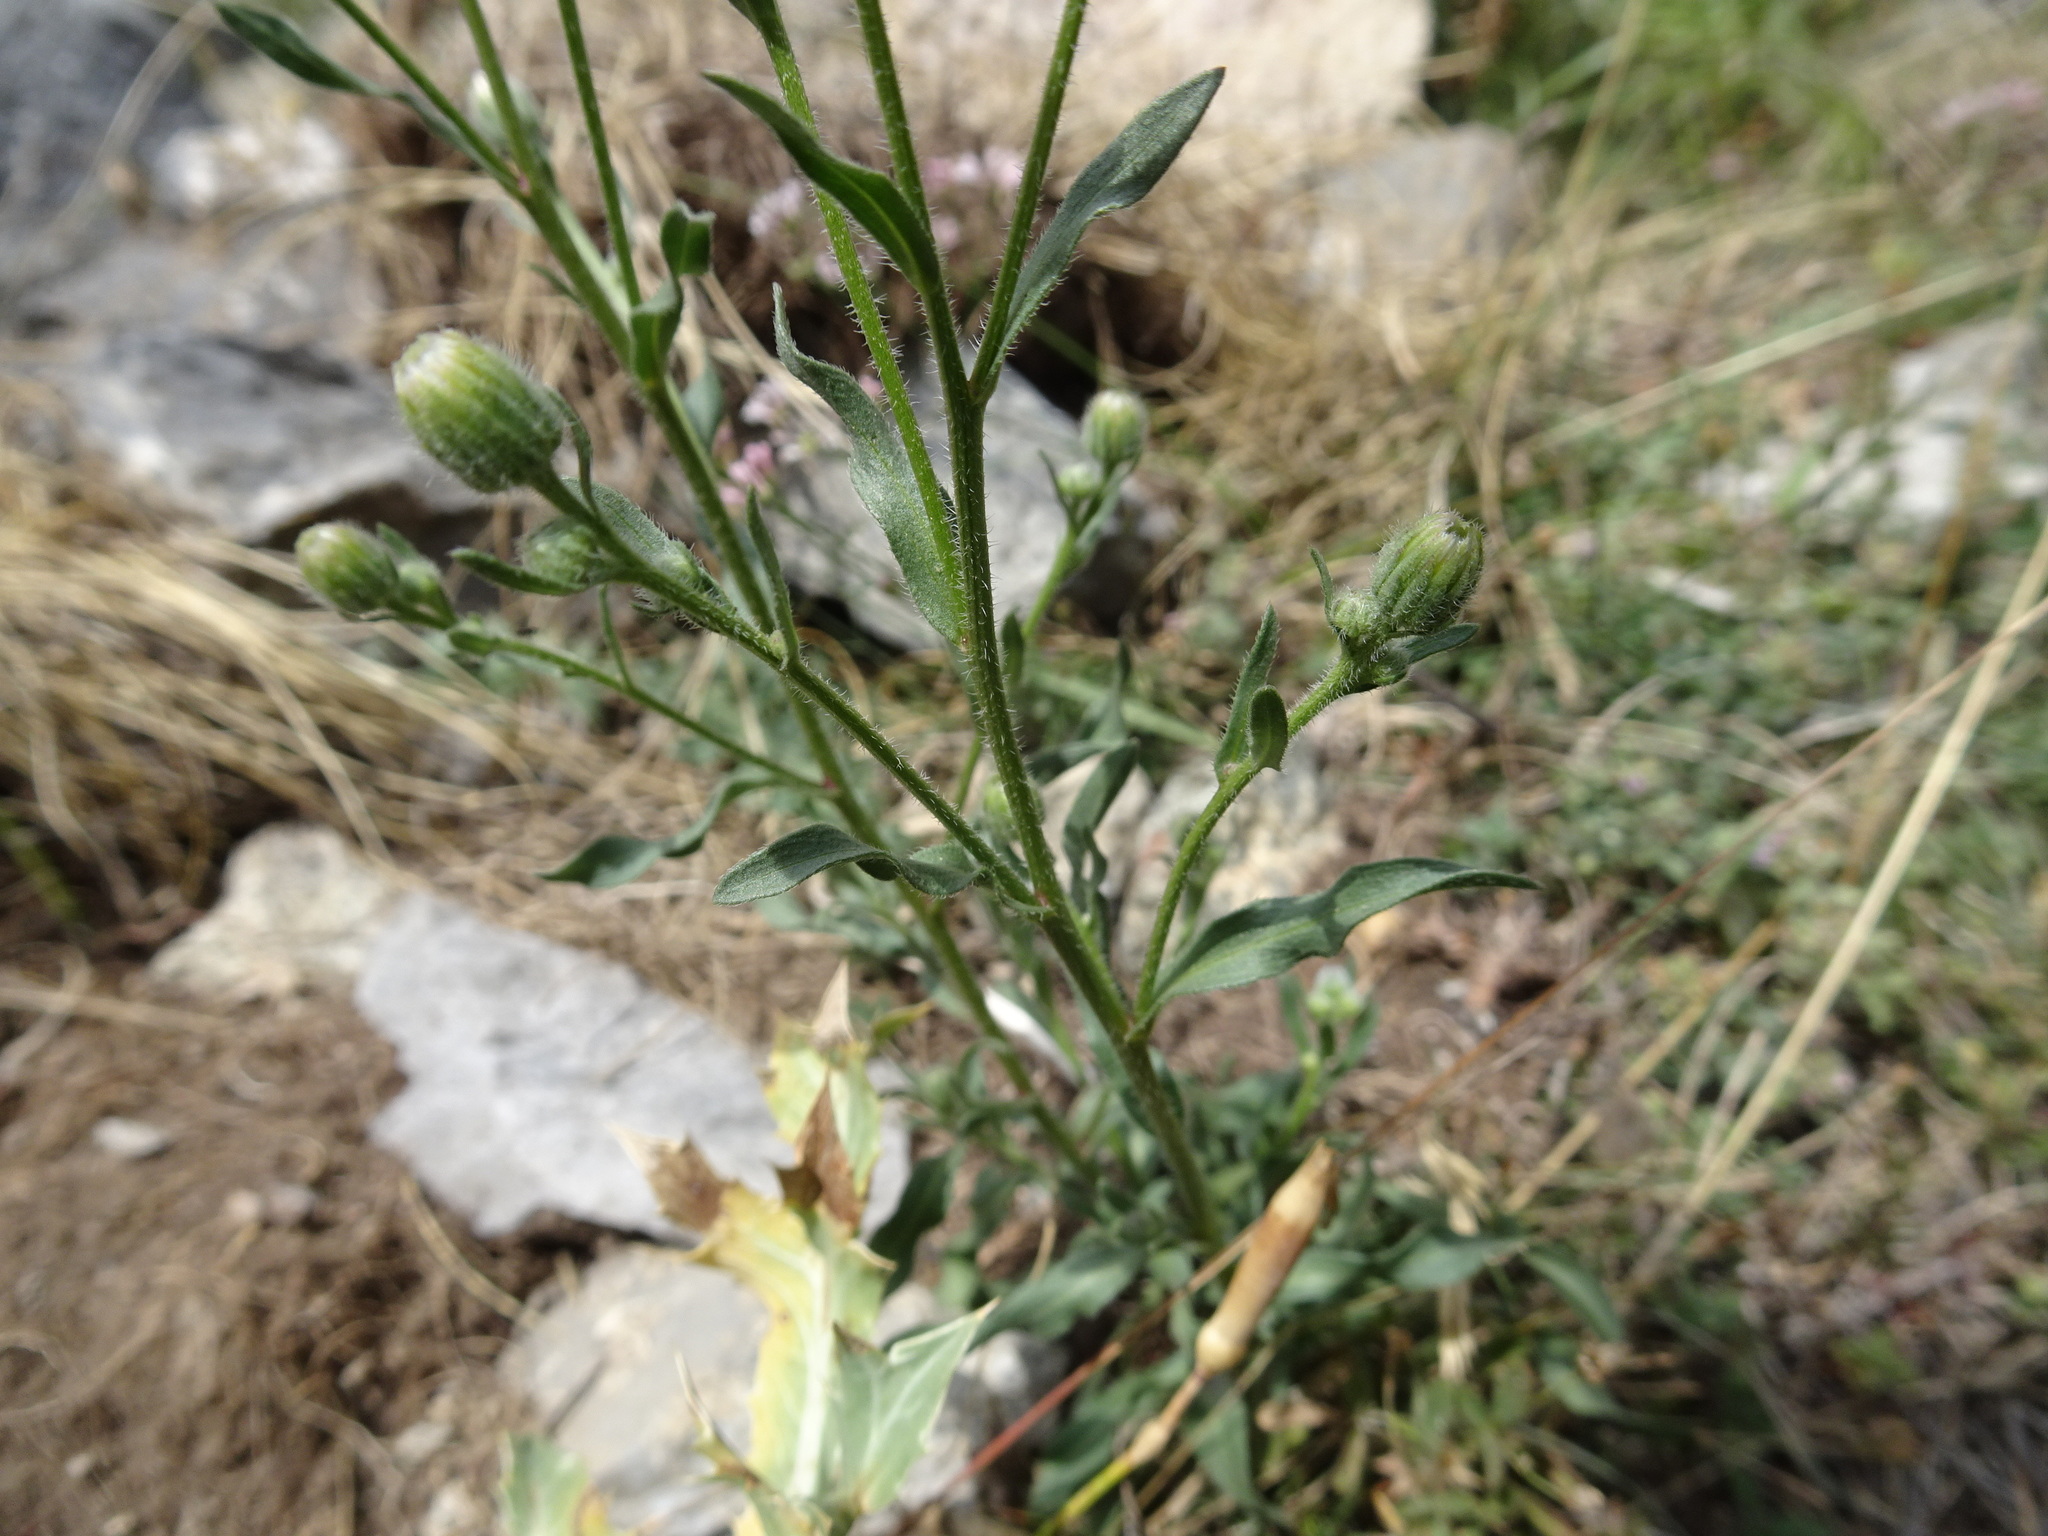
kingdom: Plantae
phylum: Tracheophyta
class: Magnoliopsida
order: Asterales
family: Asteraceae
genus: Erigeron
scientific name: Erigeron acris
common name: Blue fleabane
